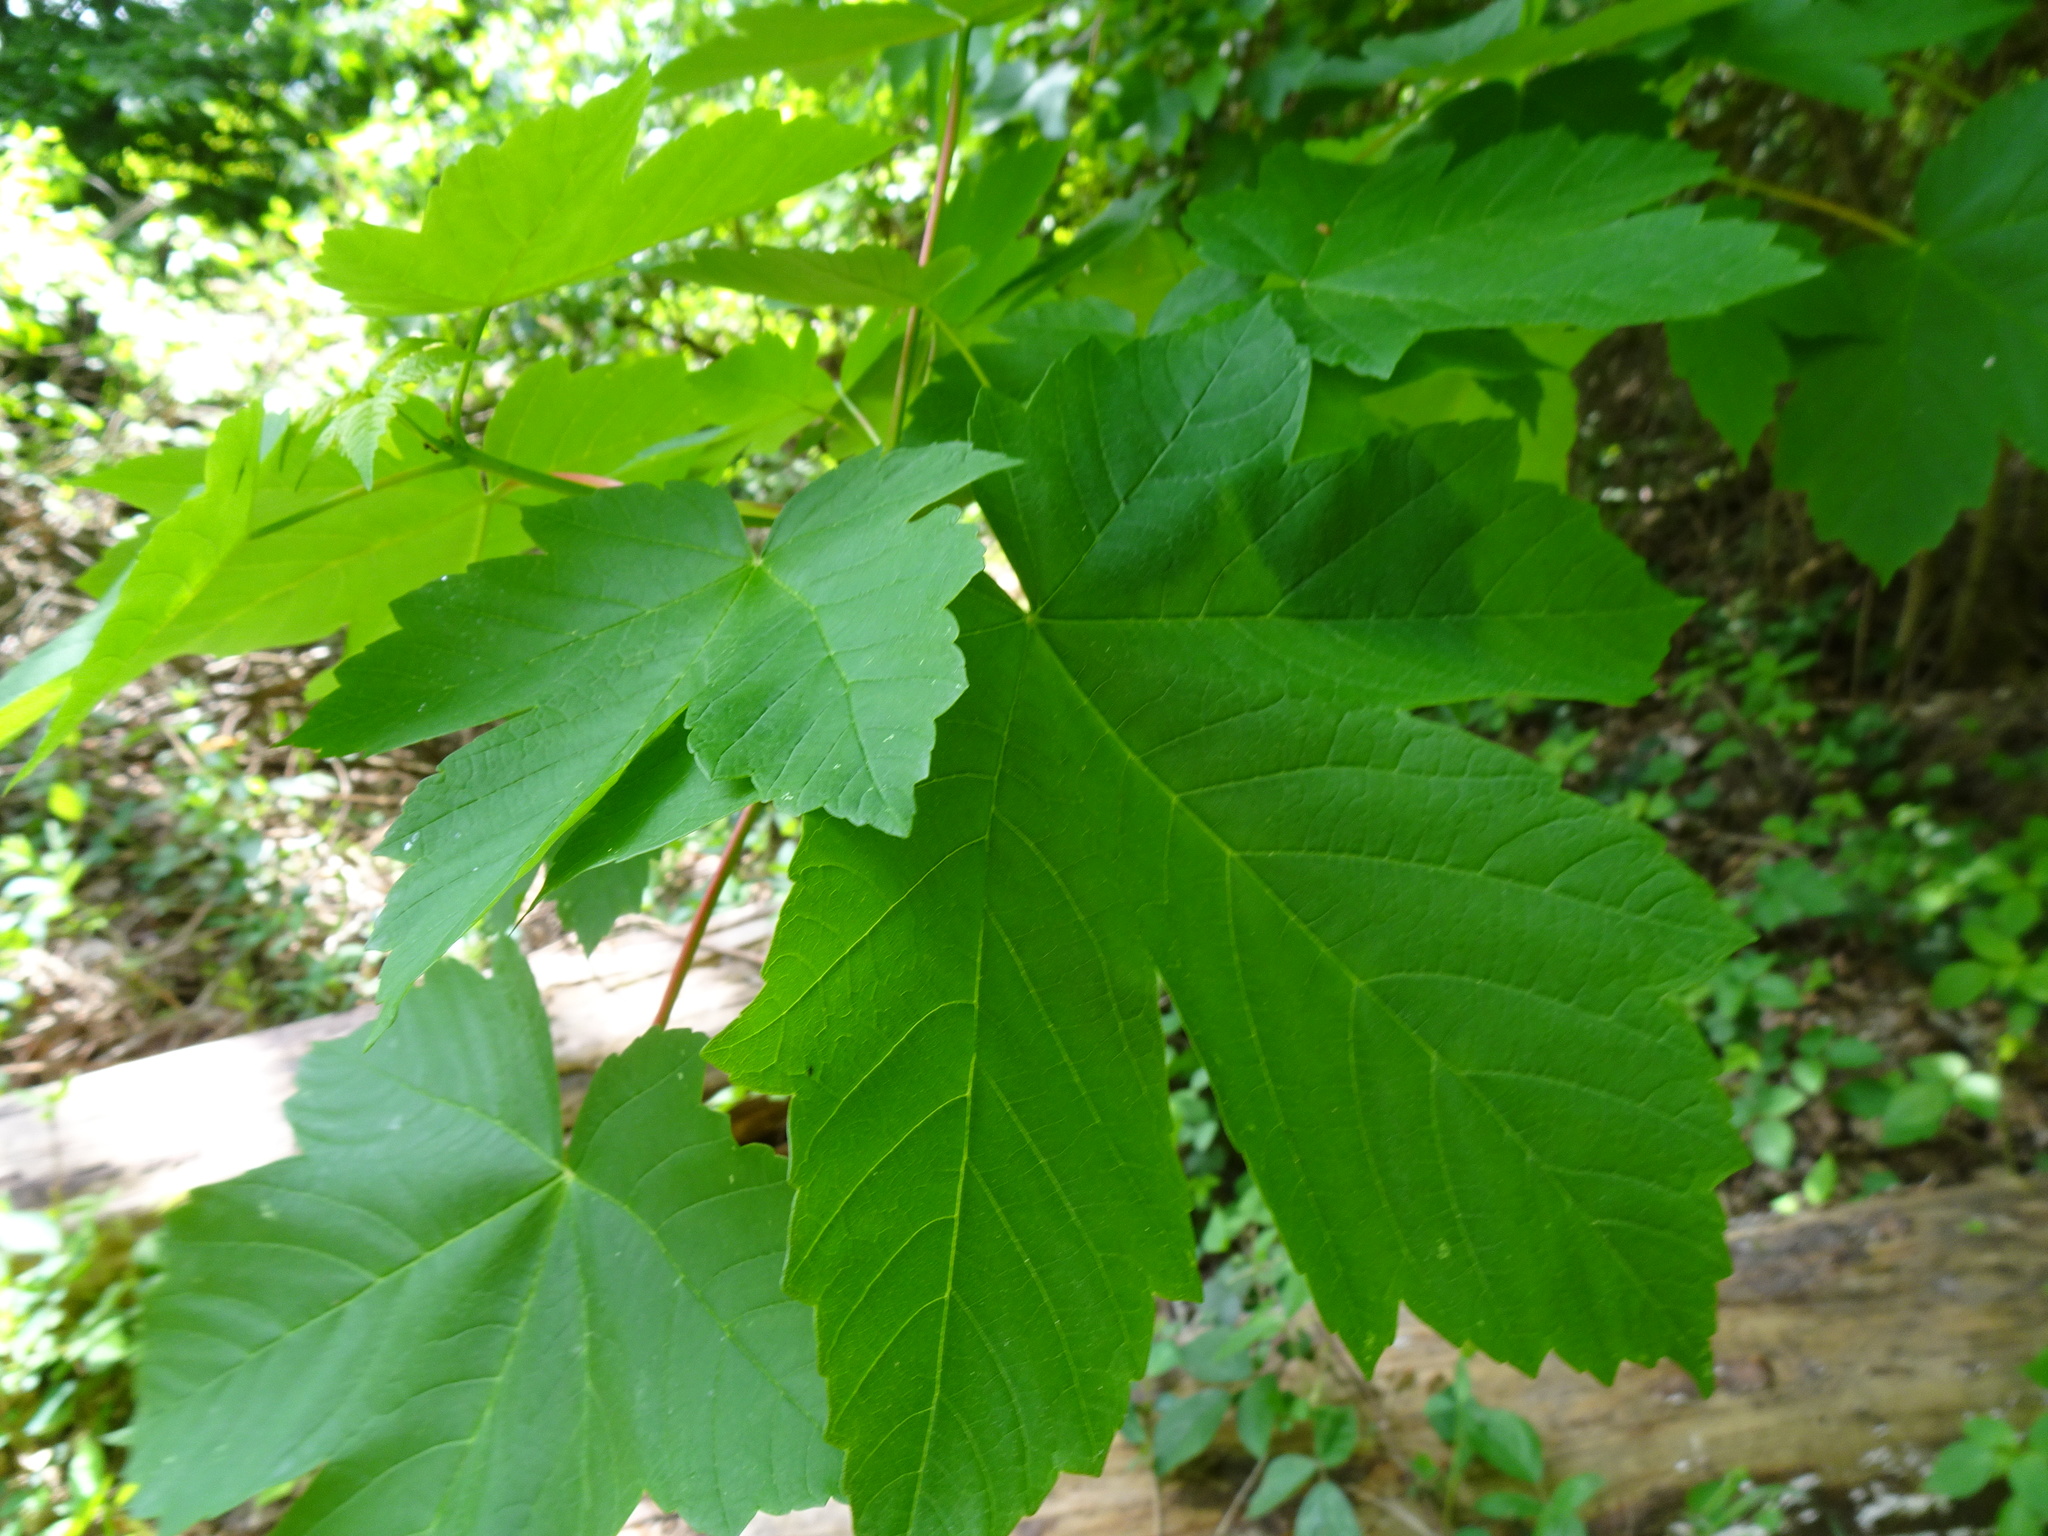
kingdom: Plantae
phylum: Tracheophyta
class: Magnoliopsida
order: Sapindales
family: Sapindaceae
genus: Acer
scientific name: Acer pseudoplatanus
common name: Sycamore
